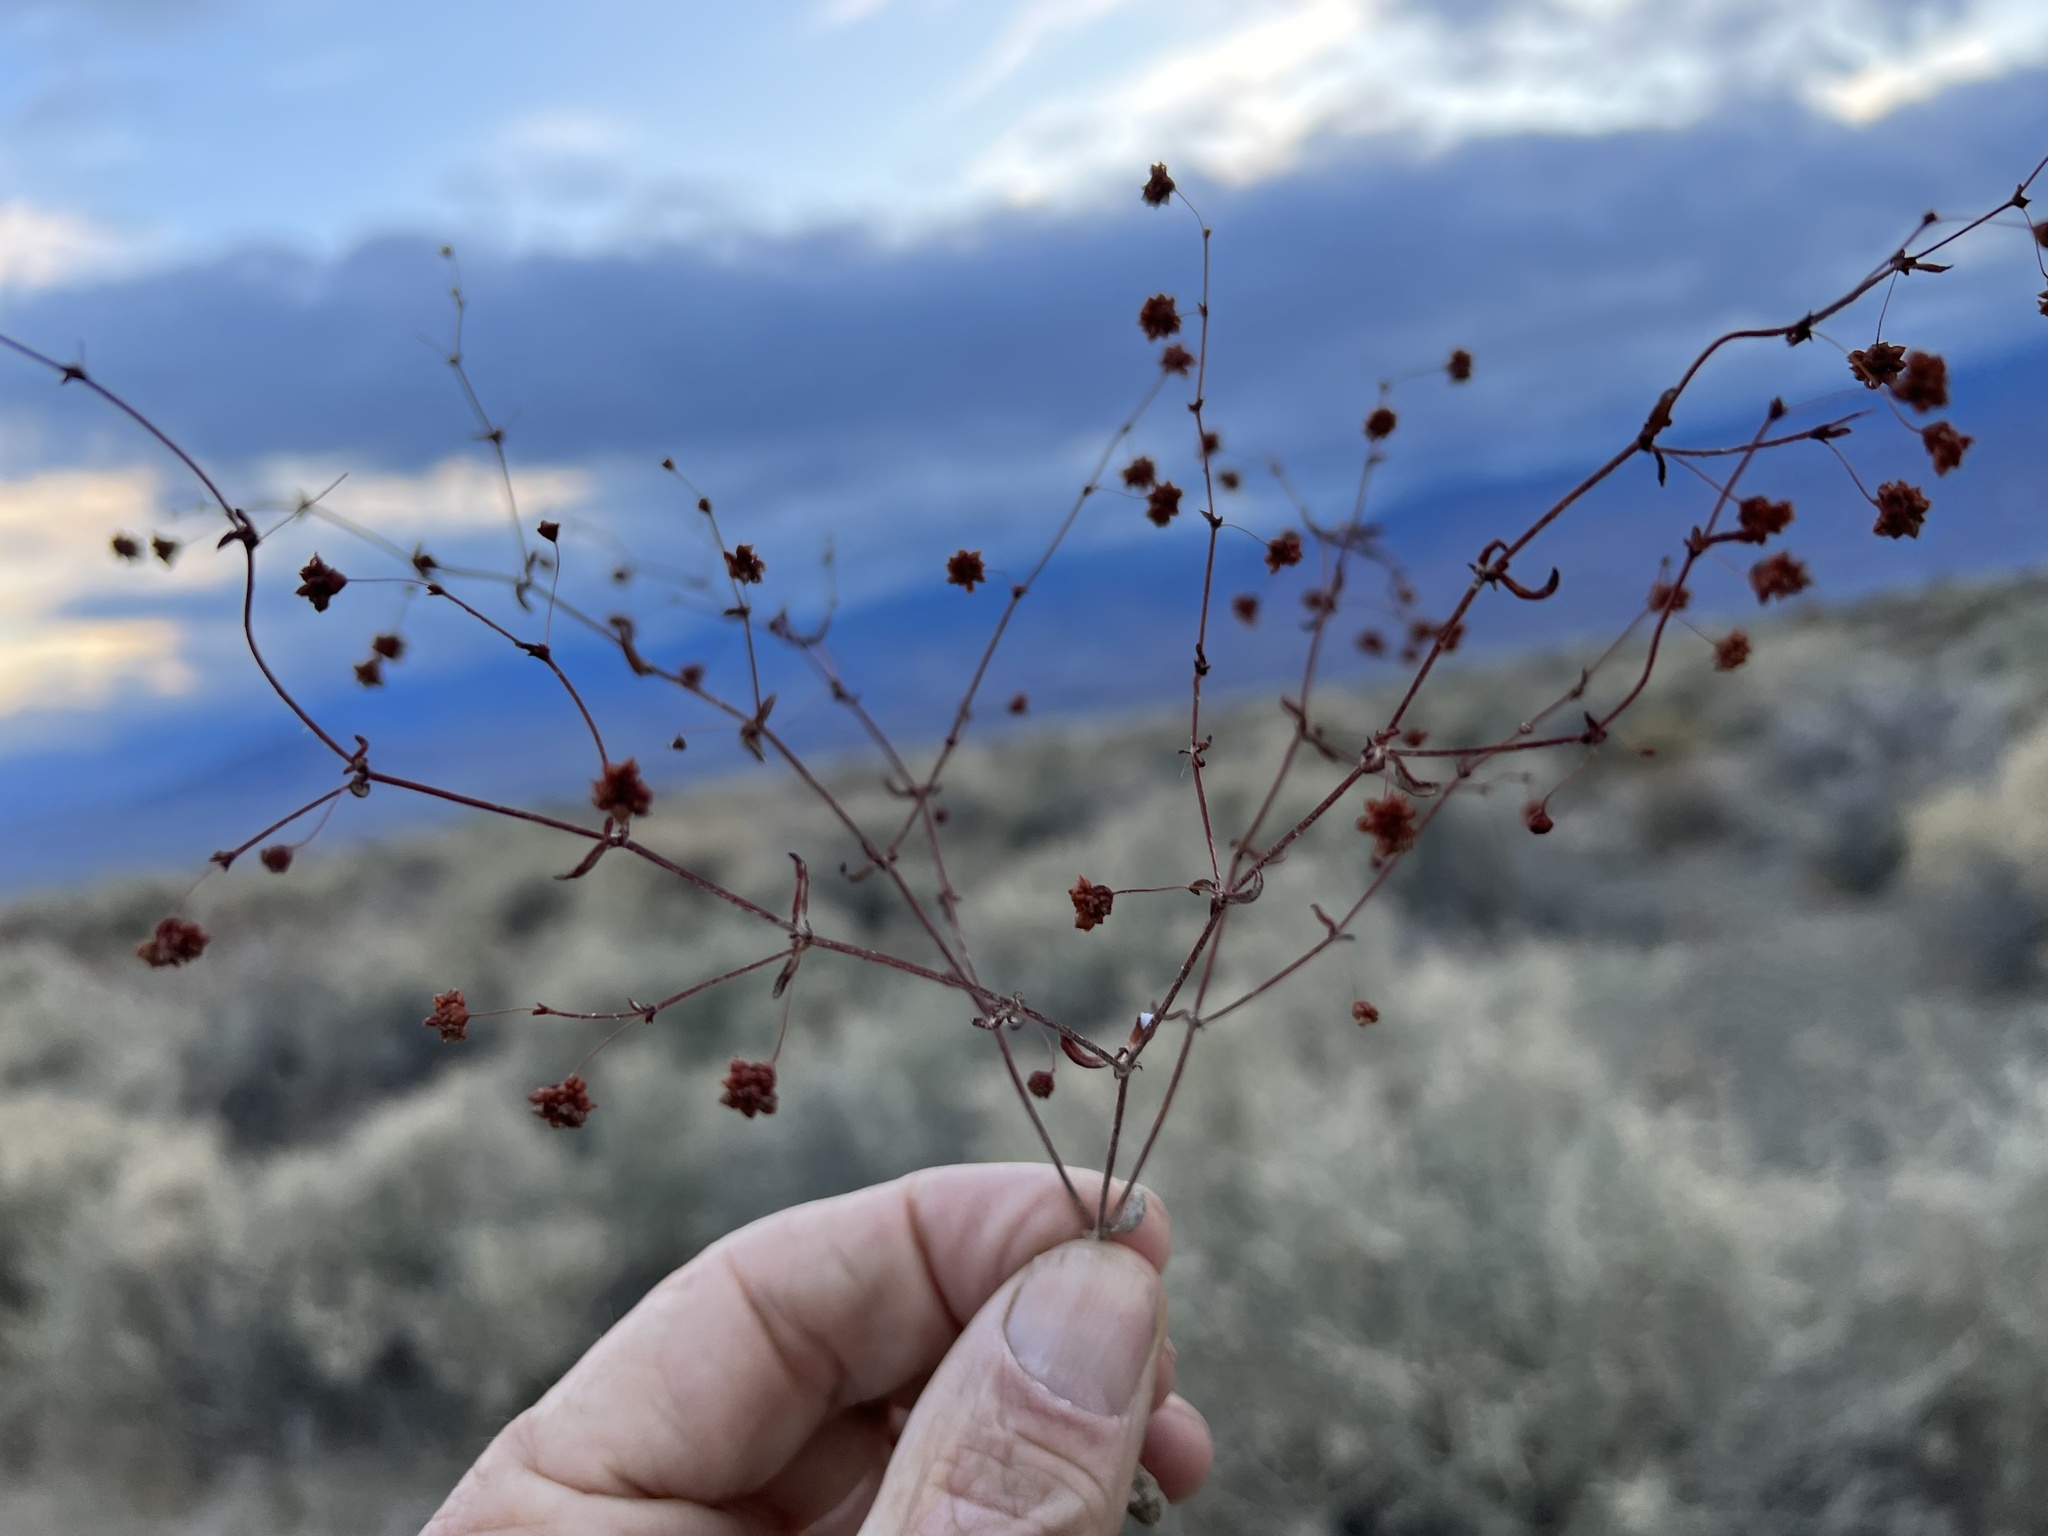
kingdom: Plantae
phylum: Tracheophyta
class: Magnoliopsida
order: Caryophyllales
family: Polygonaceae
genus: Eriogonum
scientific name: Eriogonum maculatum
